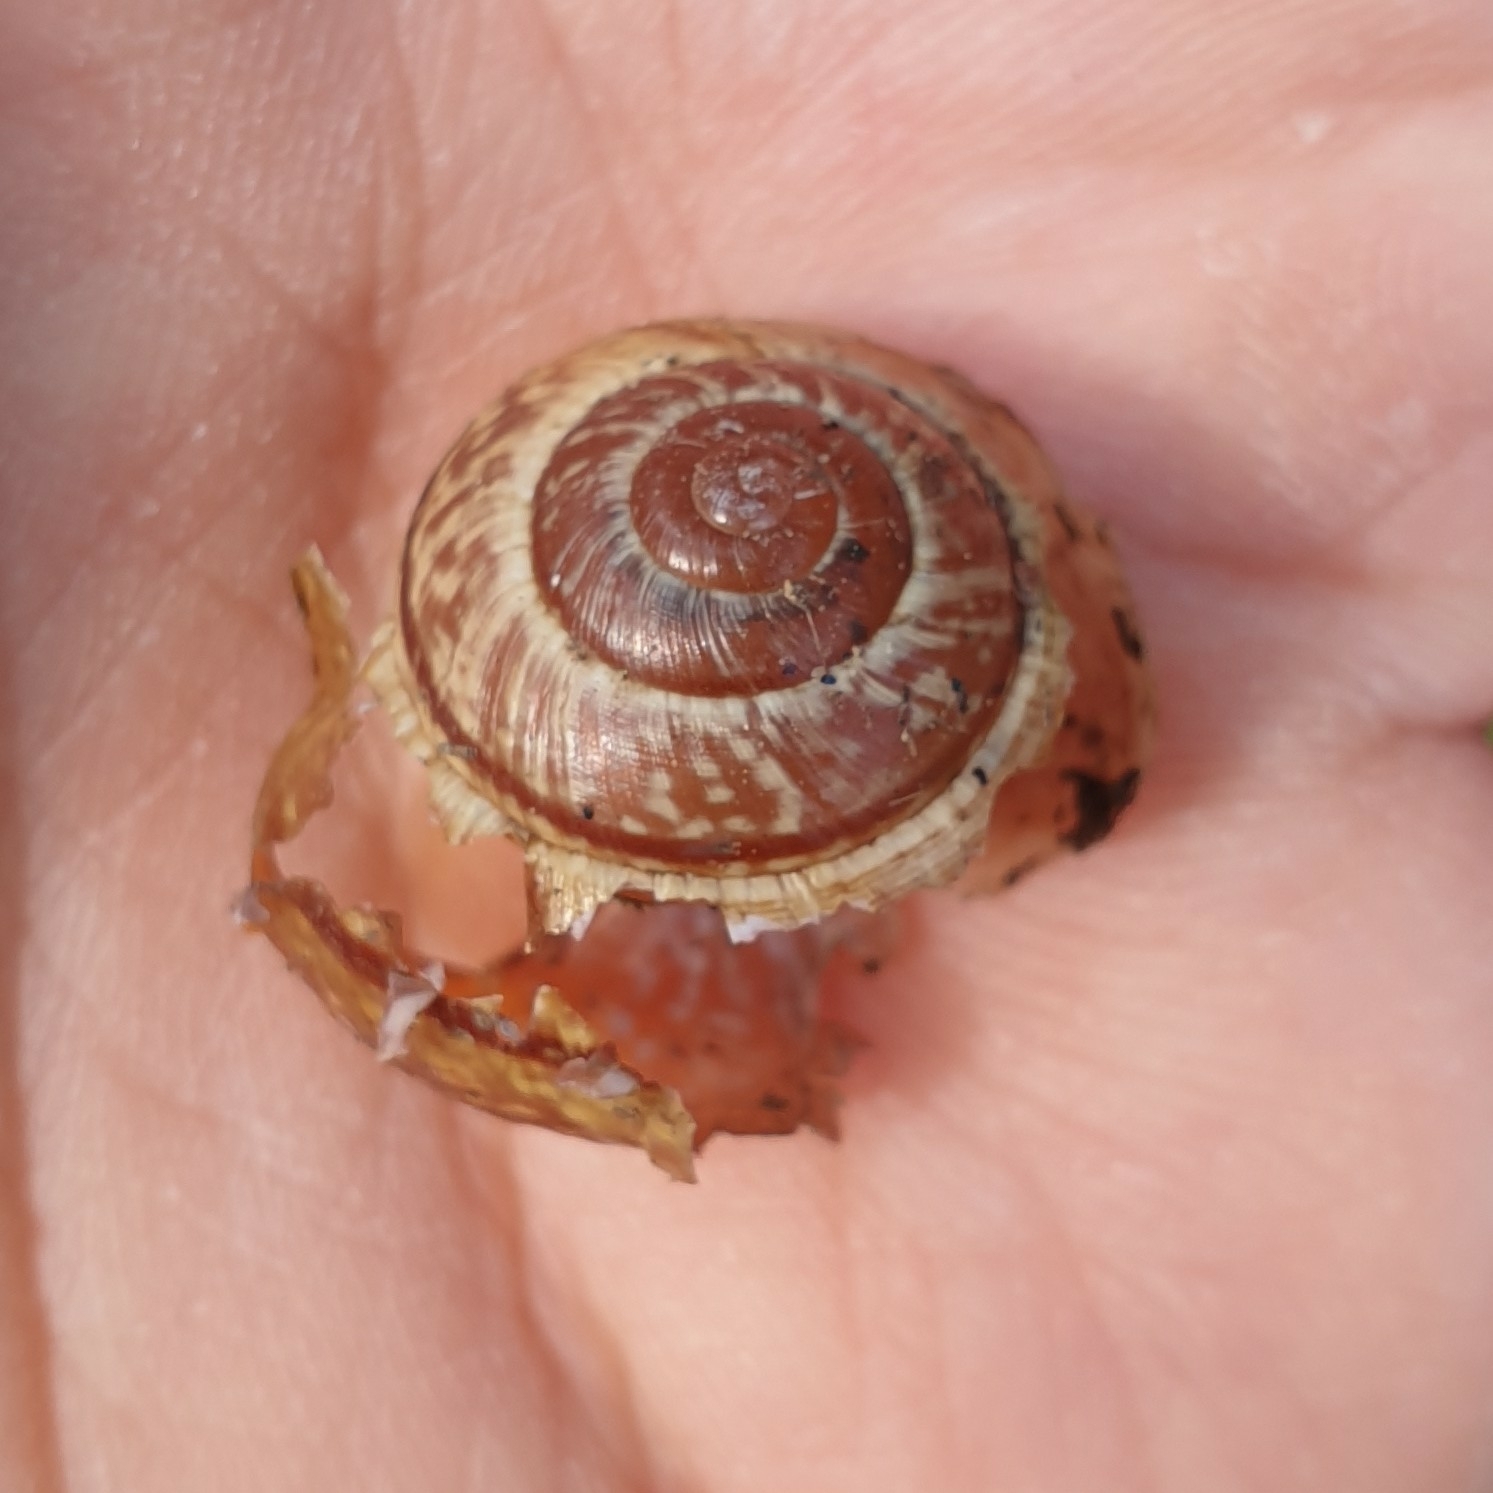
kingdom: Animalia
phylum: Mollusca
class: Gastropoda
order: Stylommatophora
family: Helicidae
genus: Arianta
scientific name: Arianta arbustorum
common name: Copse snail
